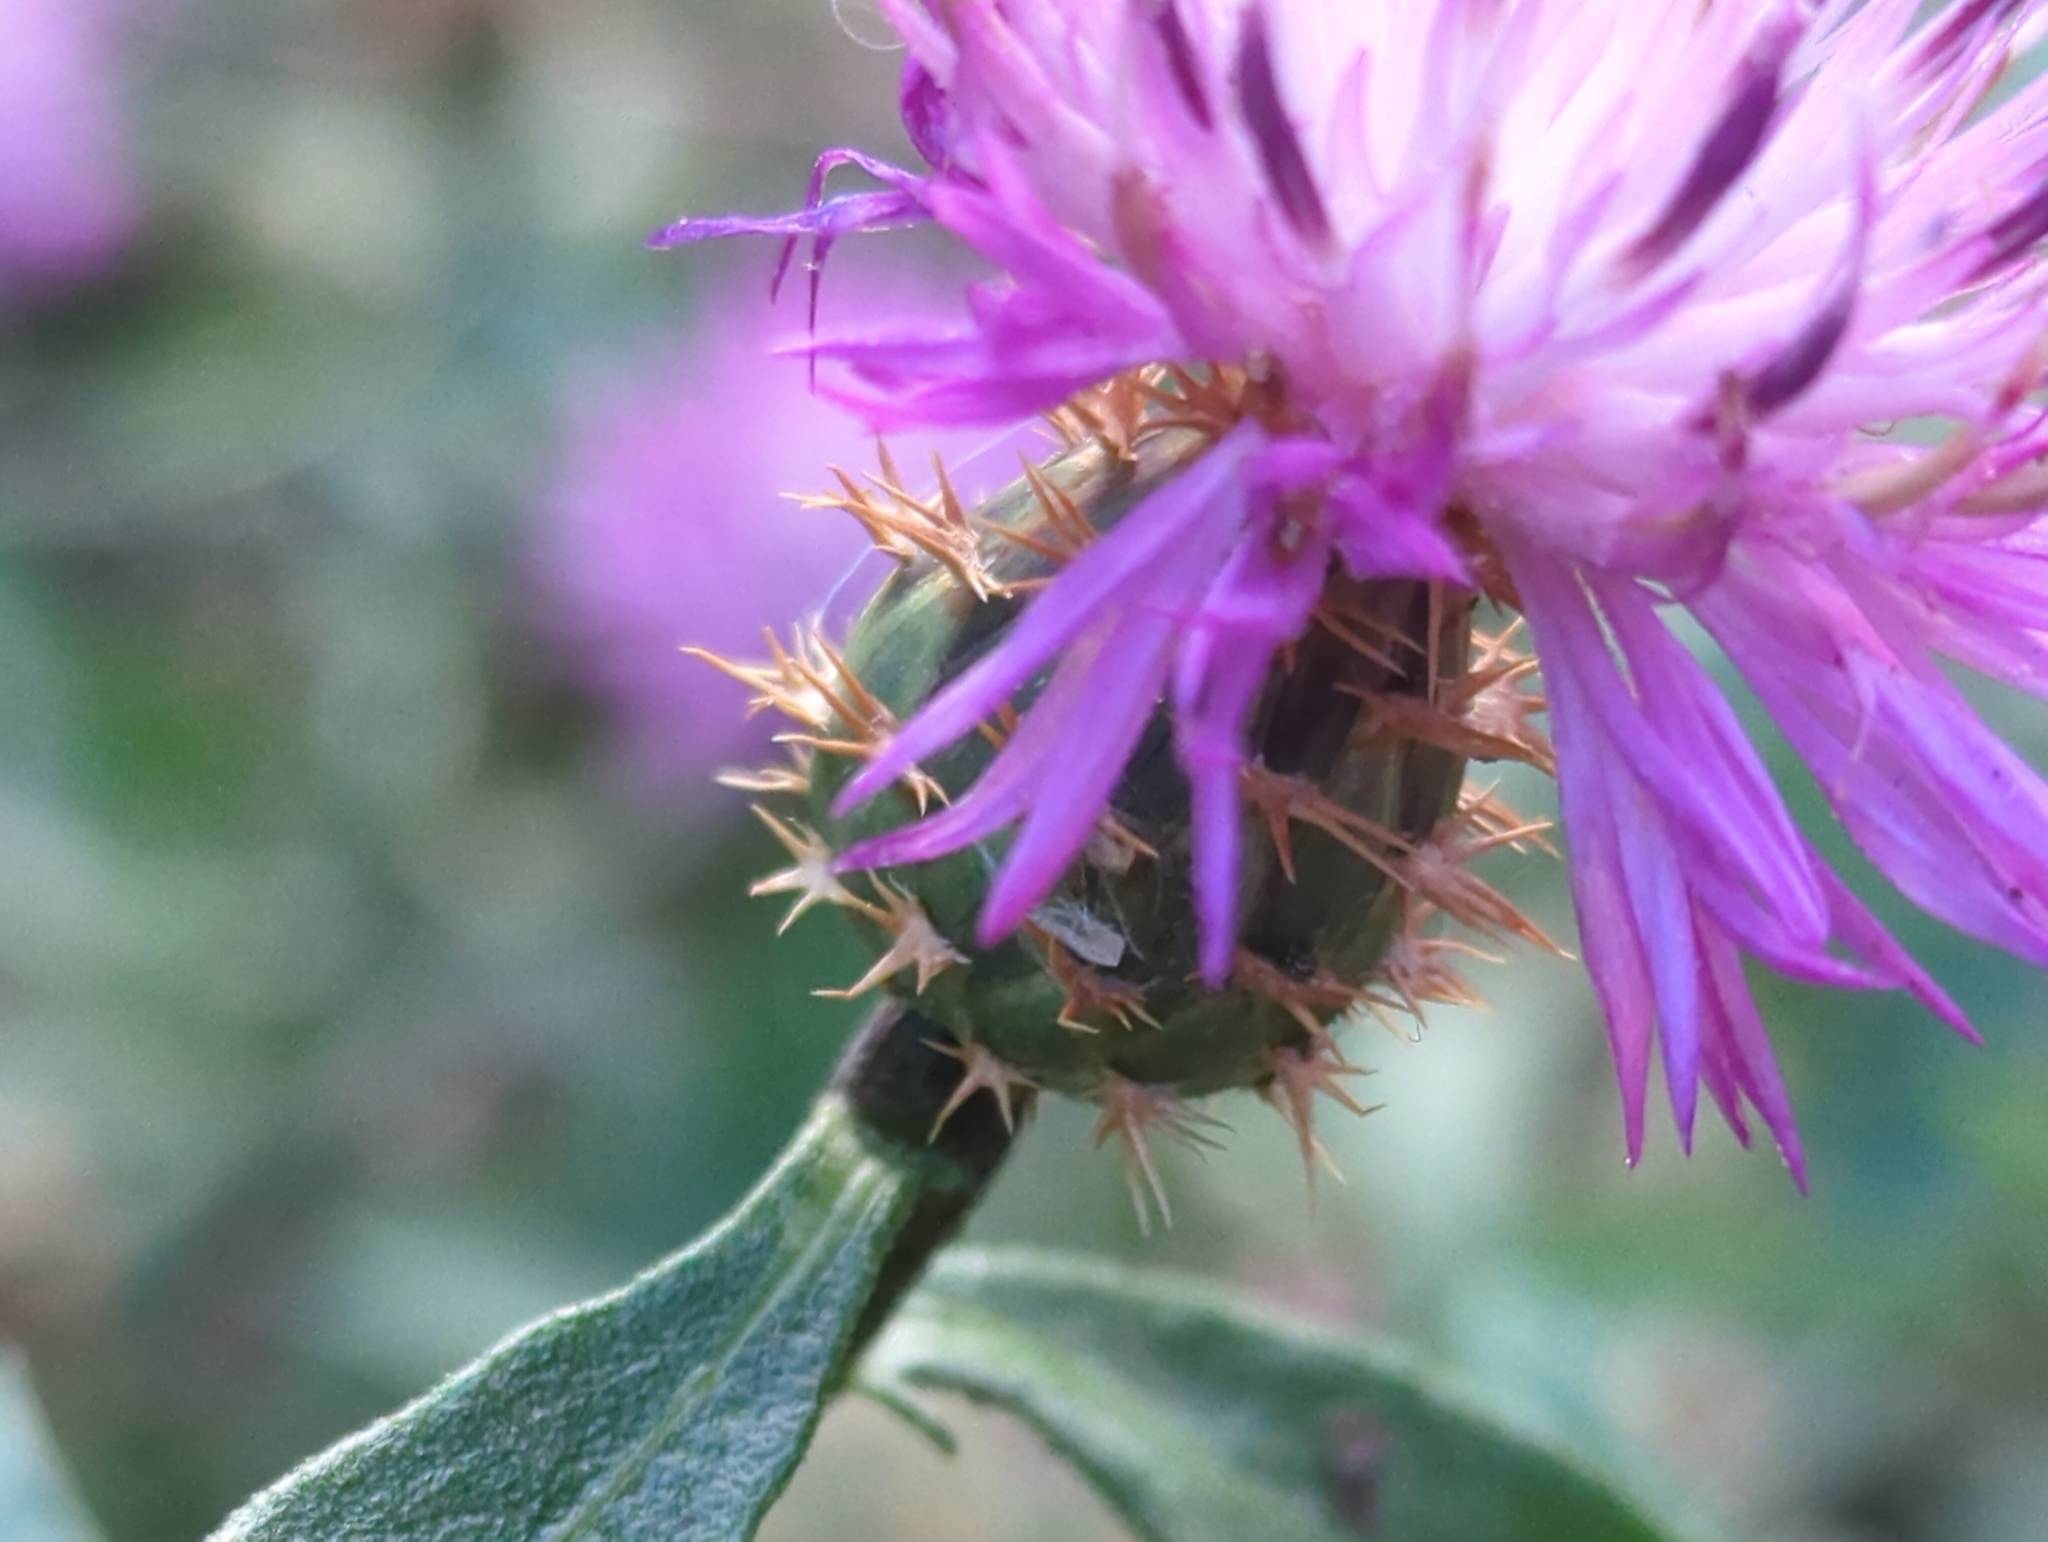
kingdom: Plantae
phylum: Tracheophyta
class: Magnoliopsida
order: Asterales
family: Asteraceae
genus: Centaurea
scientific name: Centaurea aspera
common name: Rough star-thistle
